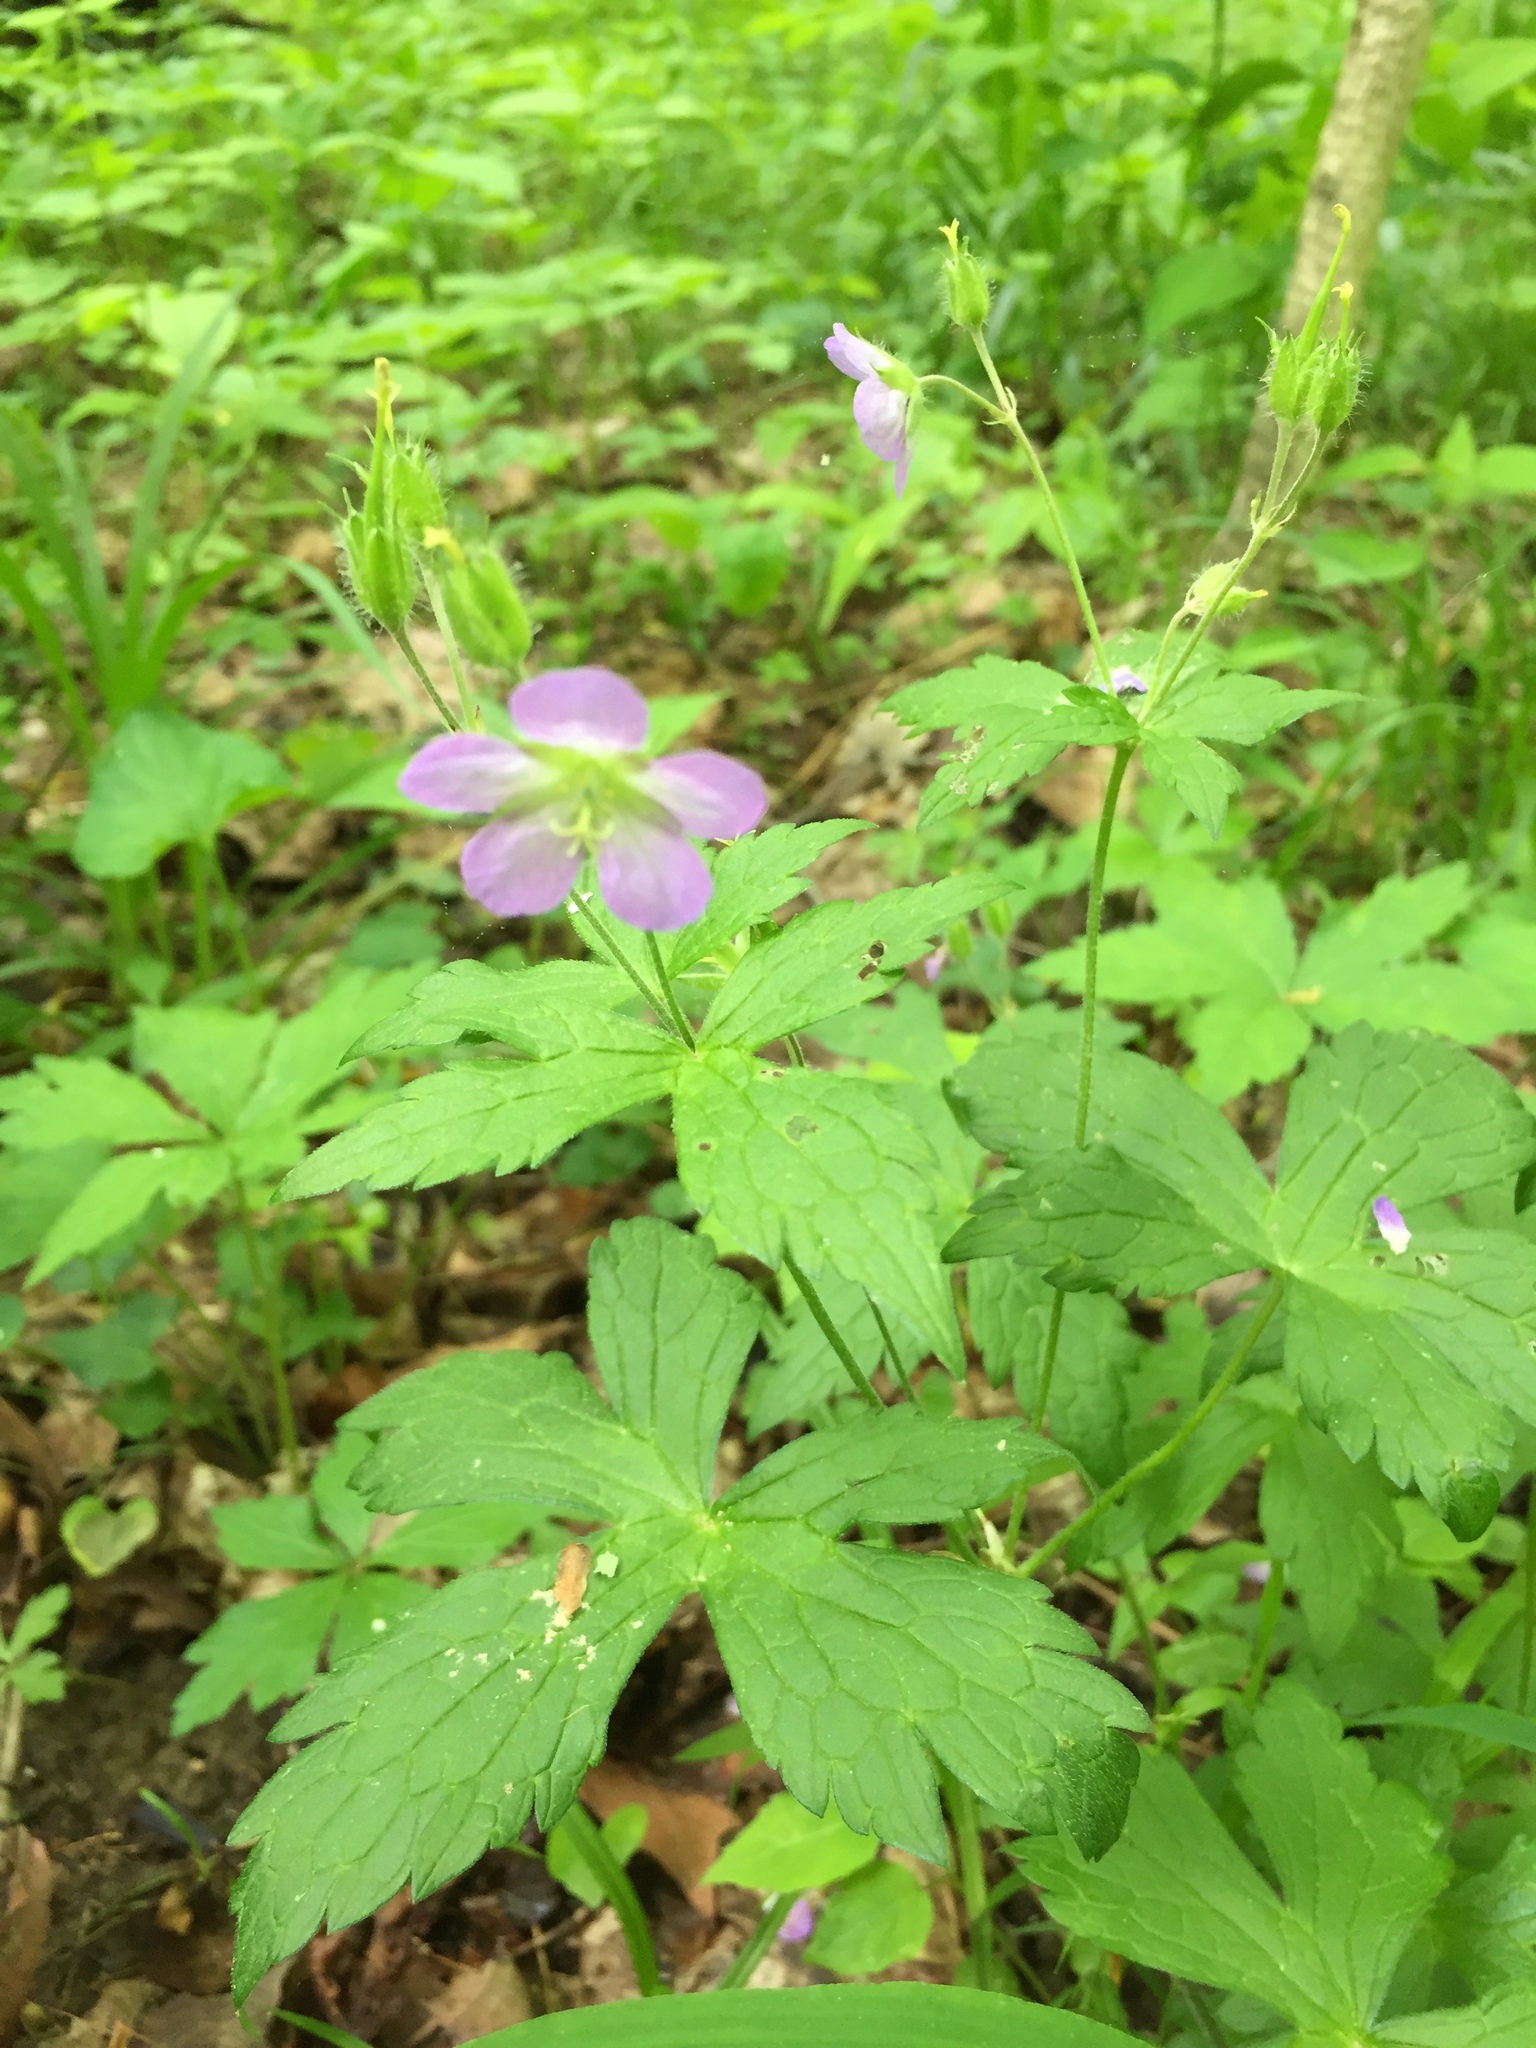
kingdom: Plantae
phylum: Tracheophyta
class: Magnoliopsida
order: Geraniales
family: Geraniaceae
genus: Geranium
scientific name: Geranium maculatum
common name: Spotted geranium
